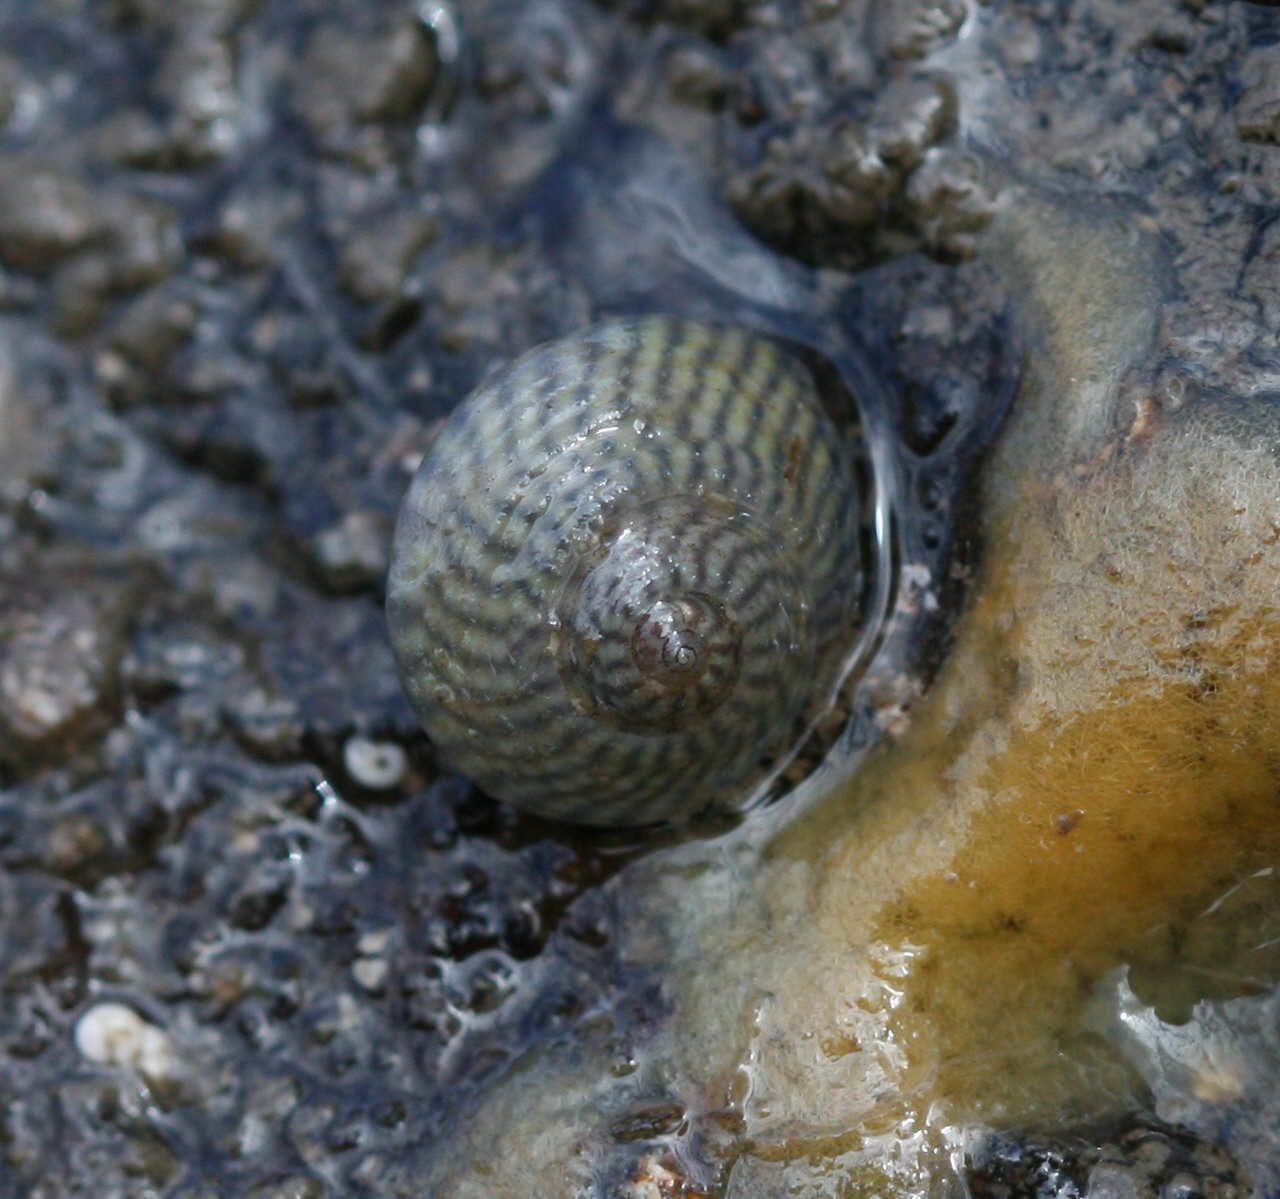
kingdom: Animalia
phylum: Mollusca
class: Gastropoda
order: Trochida
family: Trochidae
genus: Steromphala
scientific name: Steromphala cineraria
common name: Grey top shell
